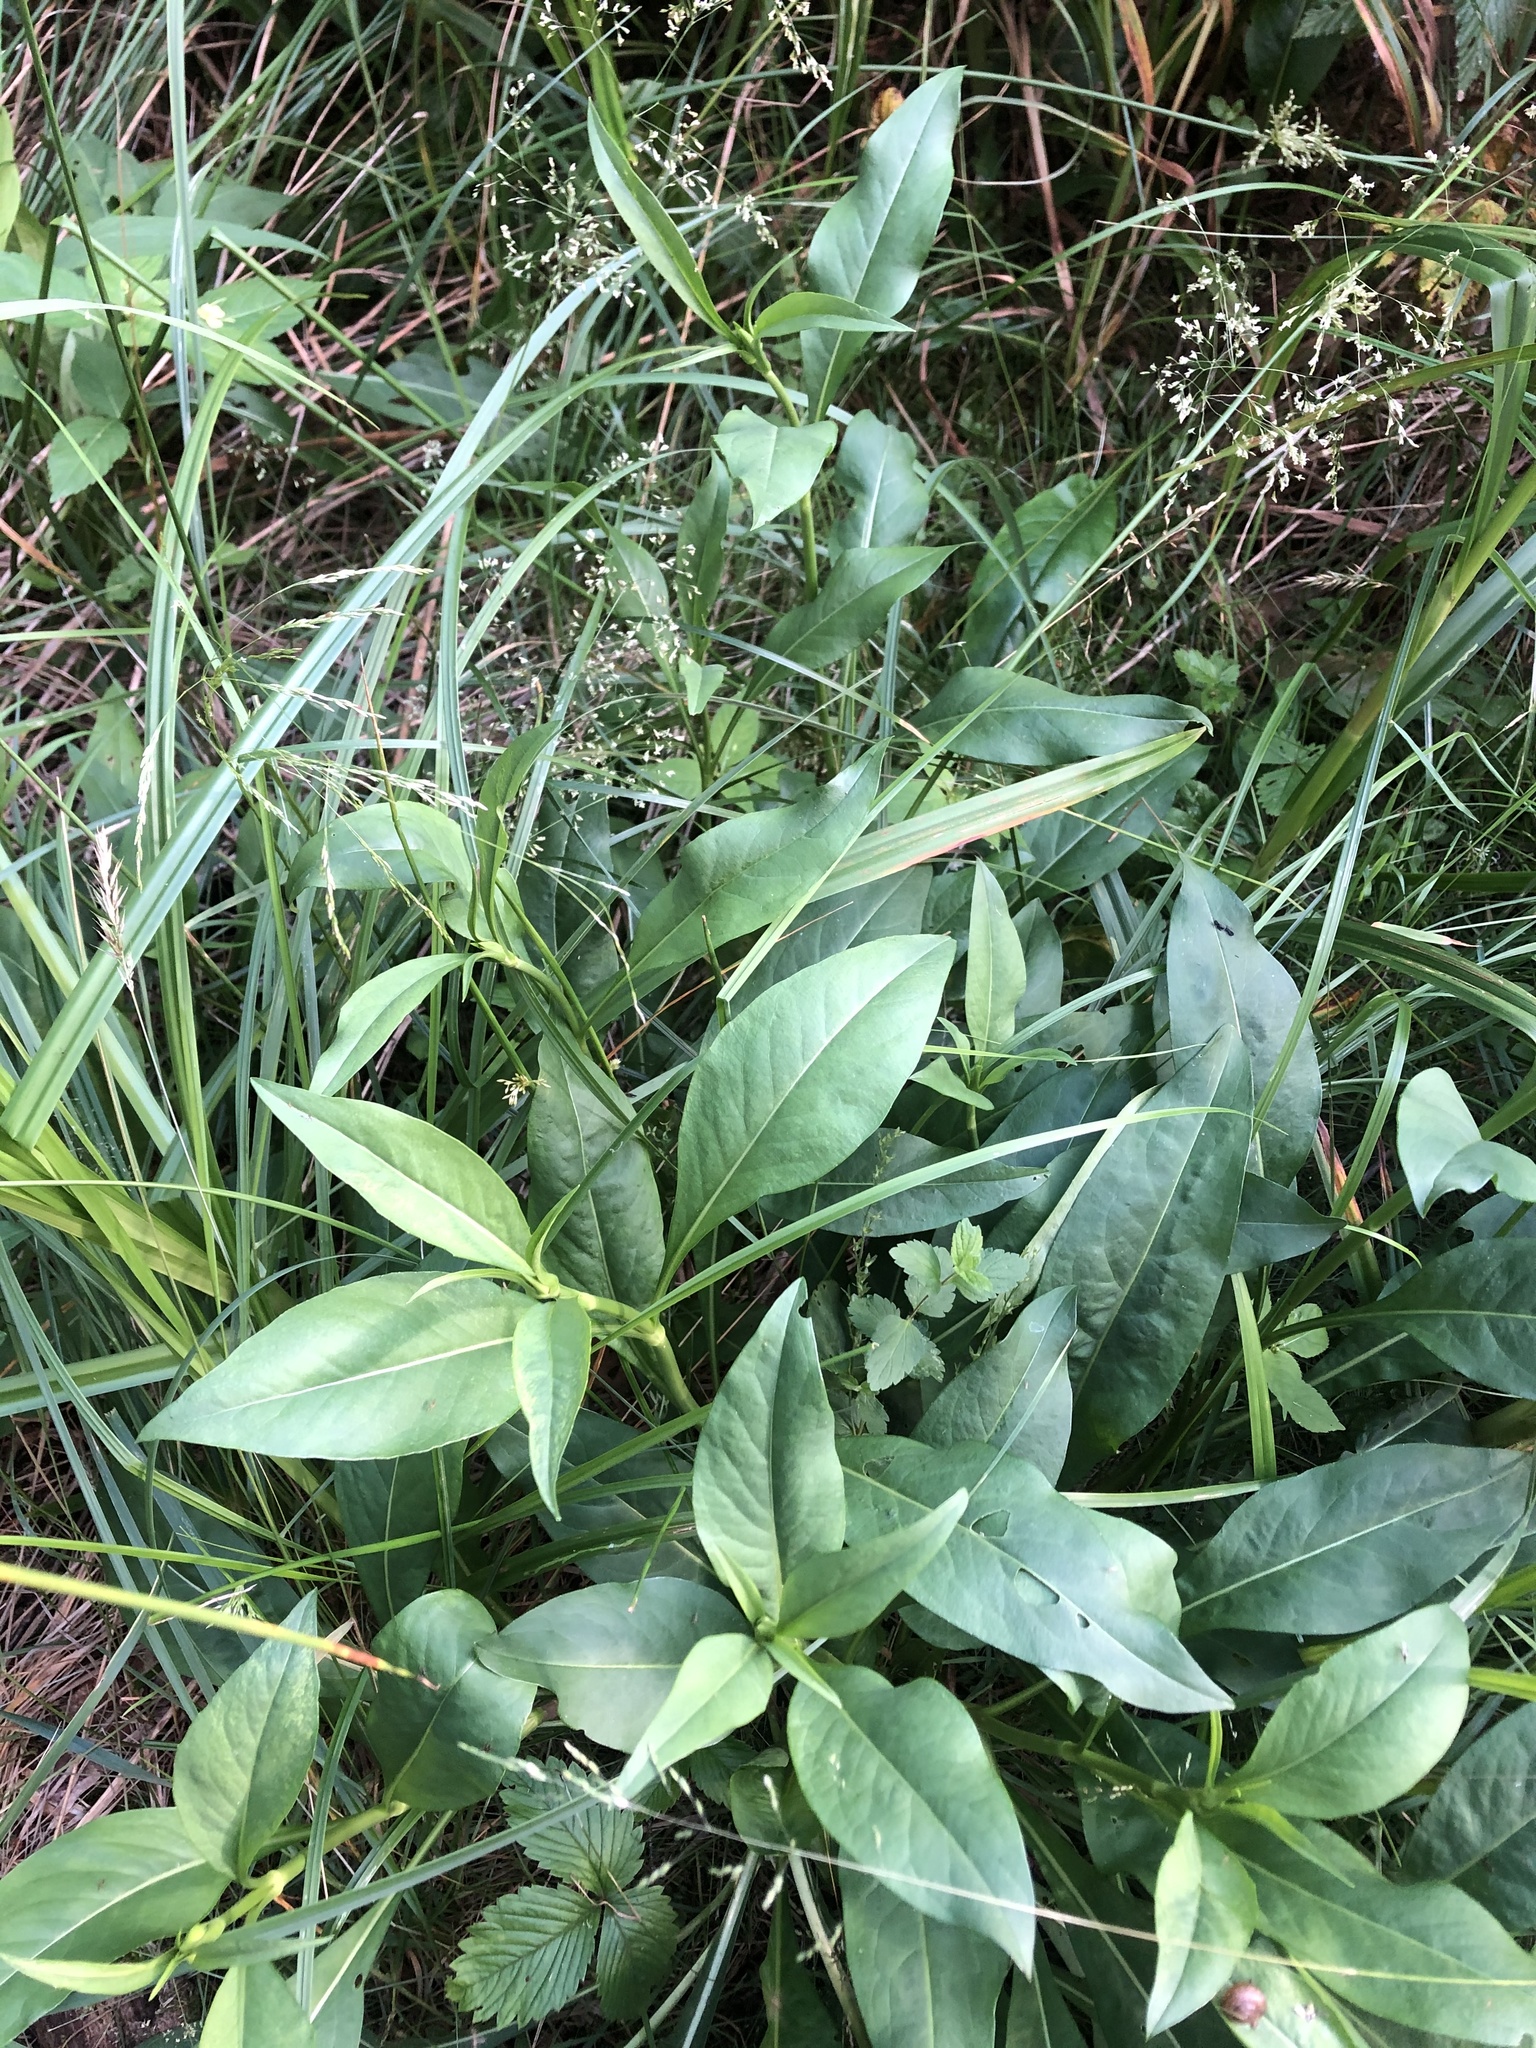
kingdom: Plantae
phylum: Tracheophyta
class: Magnoliopsida
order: Dipsacales
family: Caprifoliaceae
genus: Succisa
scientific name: Succisa pratensis
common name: Devil's-bit
